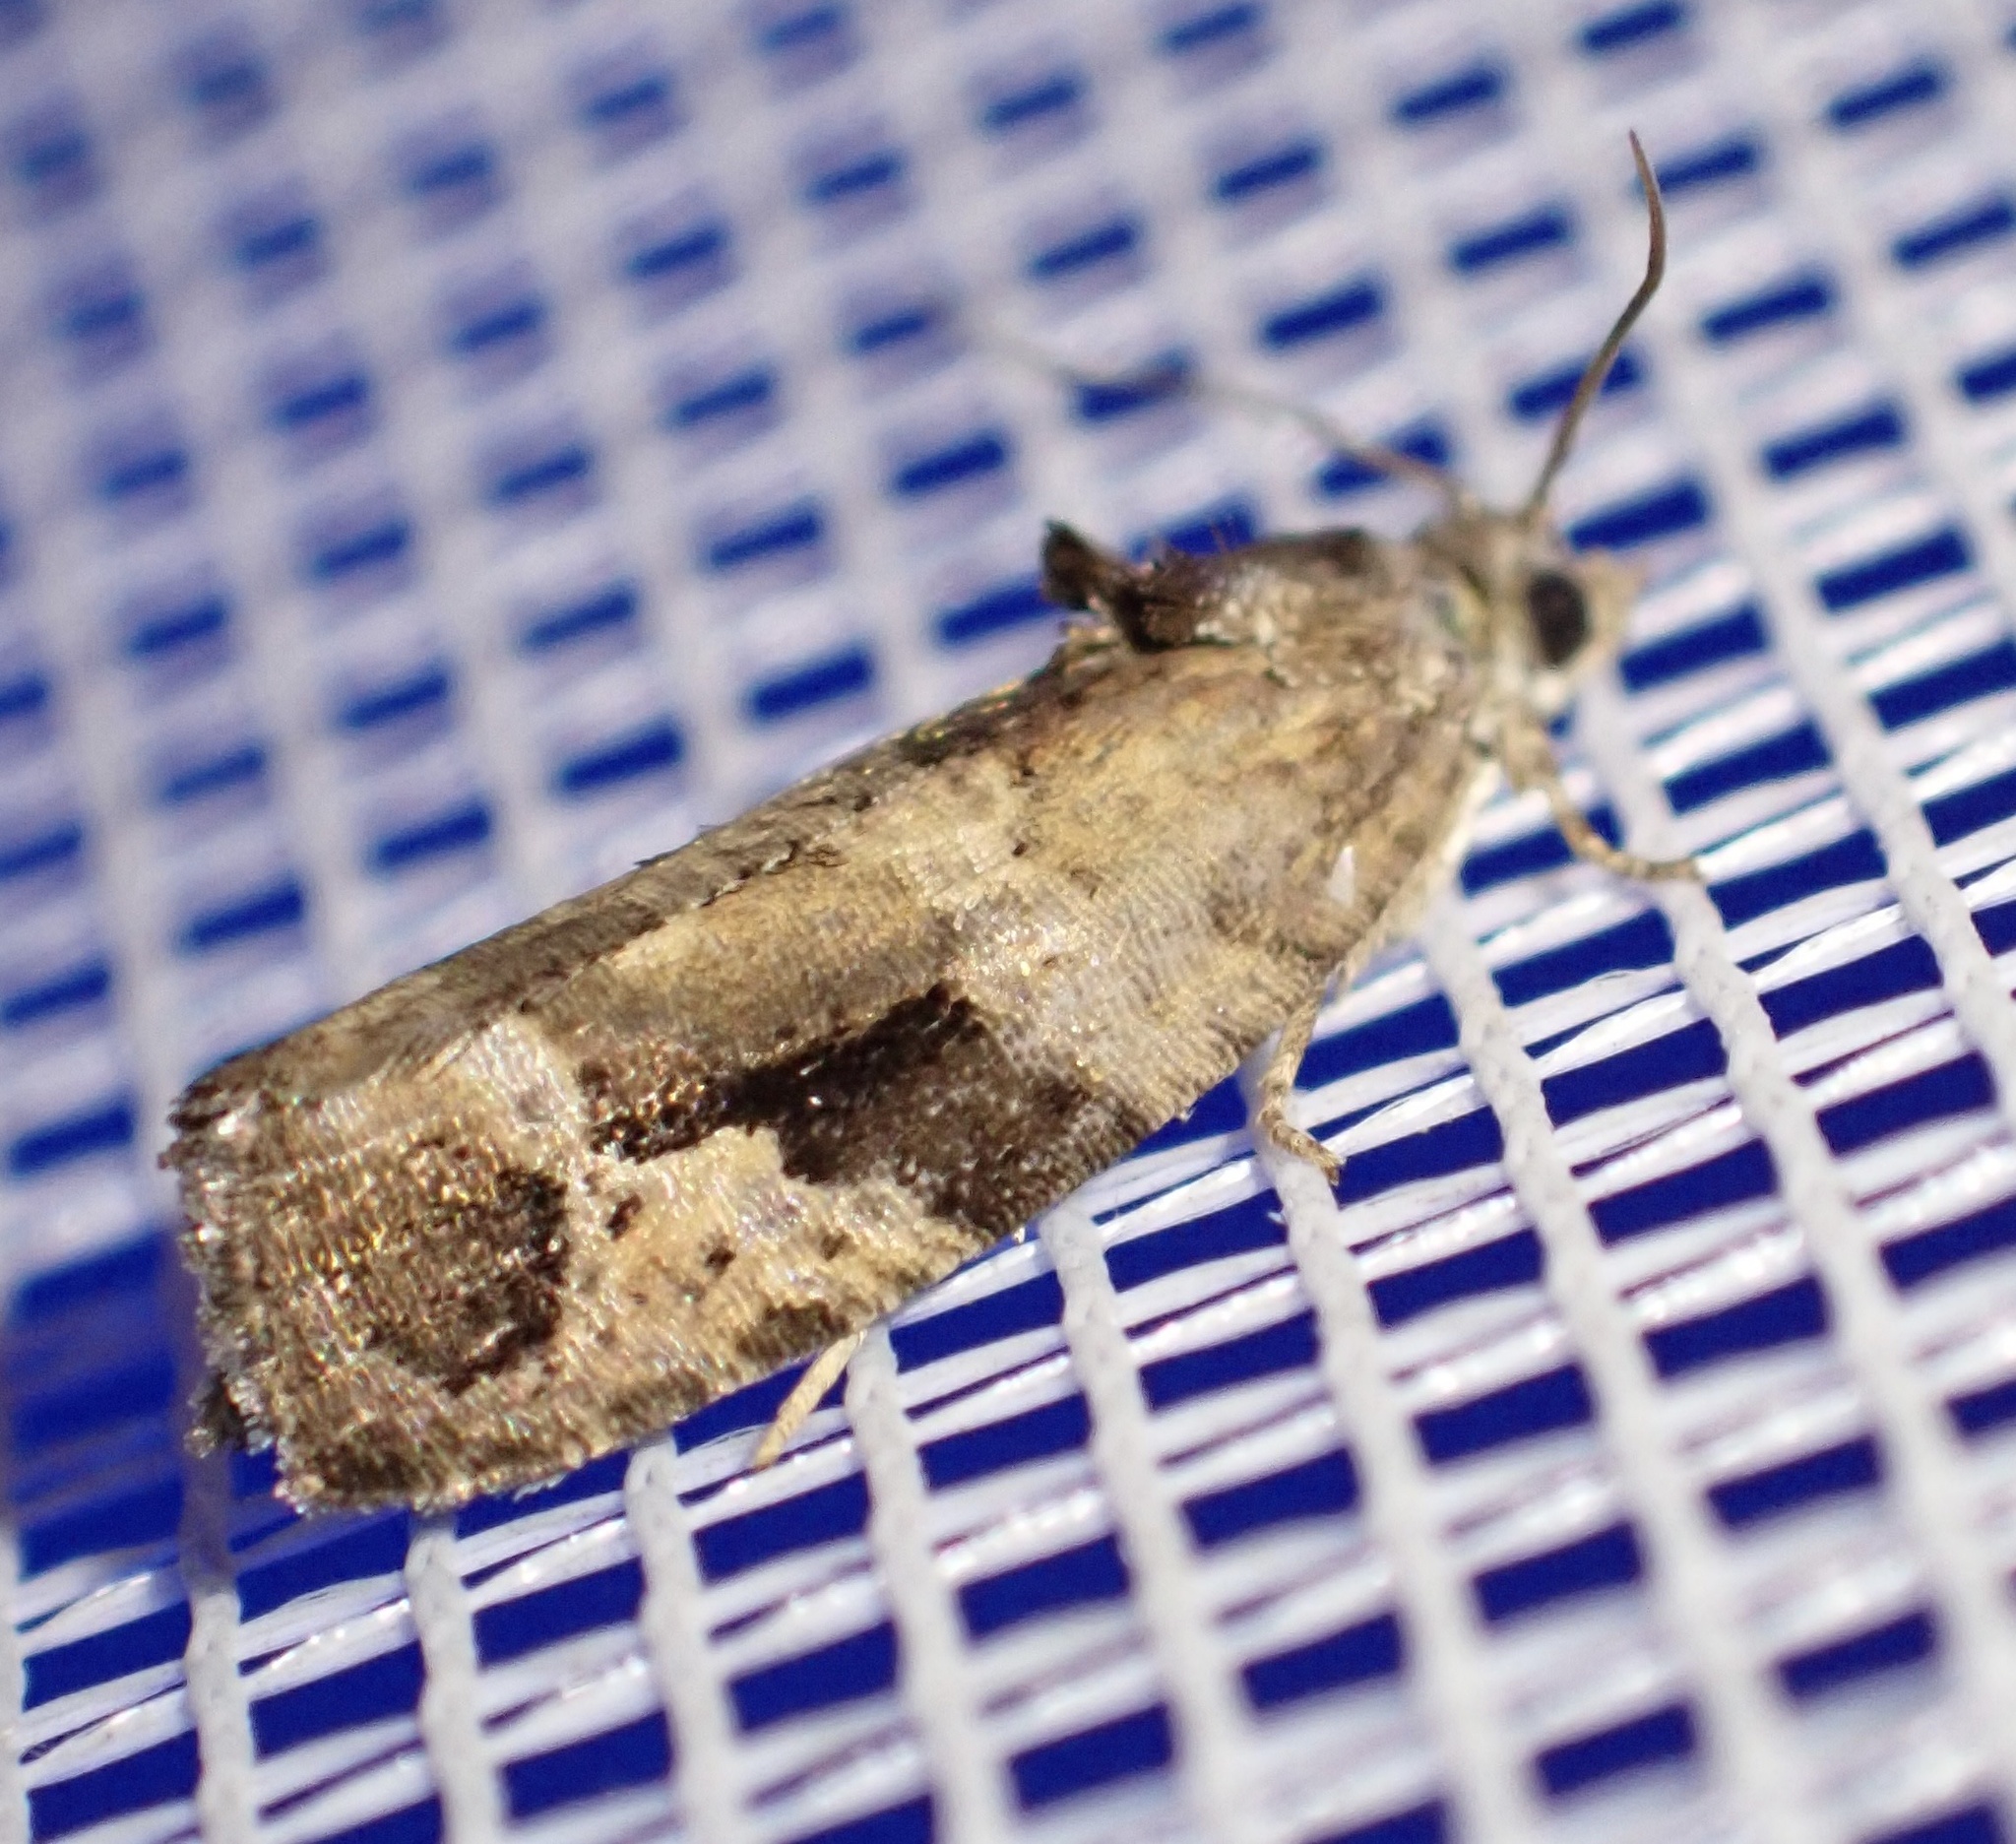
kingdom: Animalia
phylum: Arthropoda
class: Insecta
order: Lepidoptera
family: Tortricidae
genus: Eudemis
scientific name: Eudemis porphyrana
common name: Apple marble
